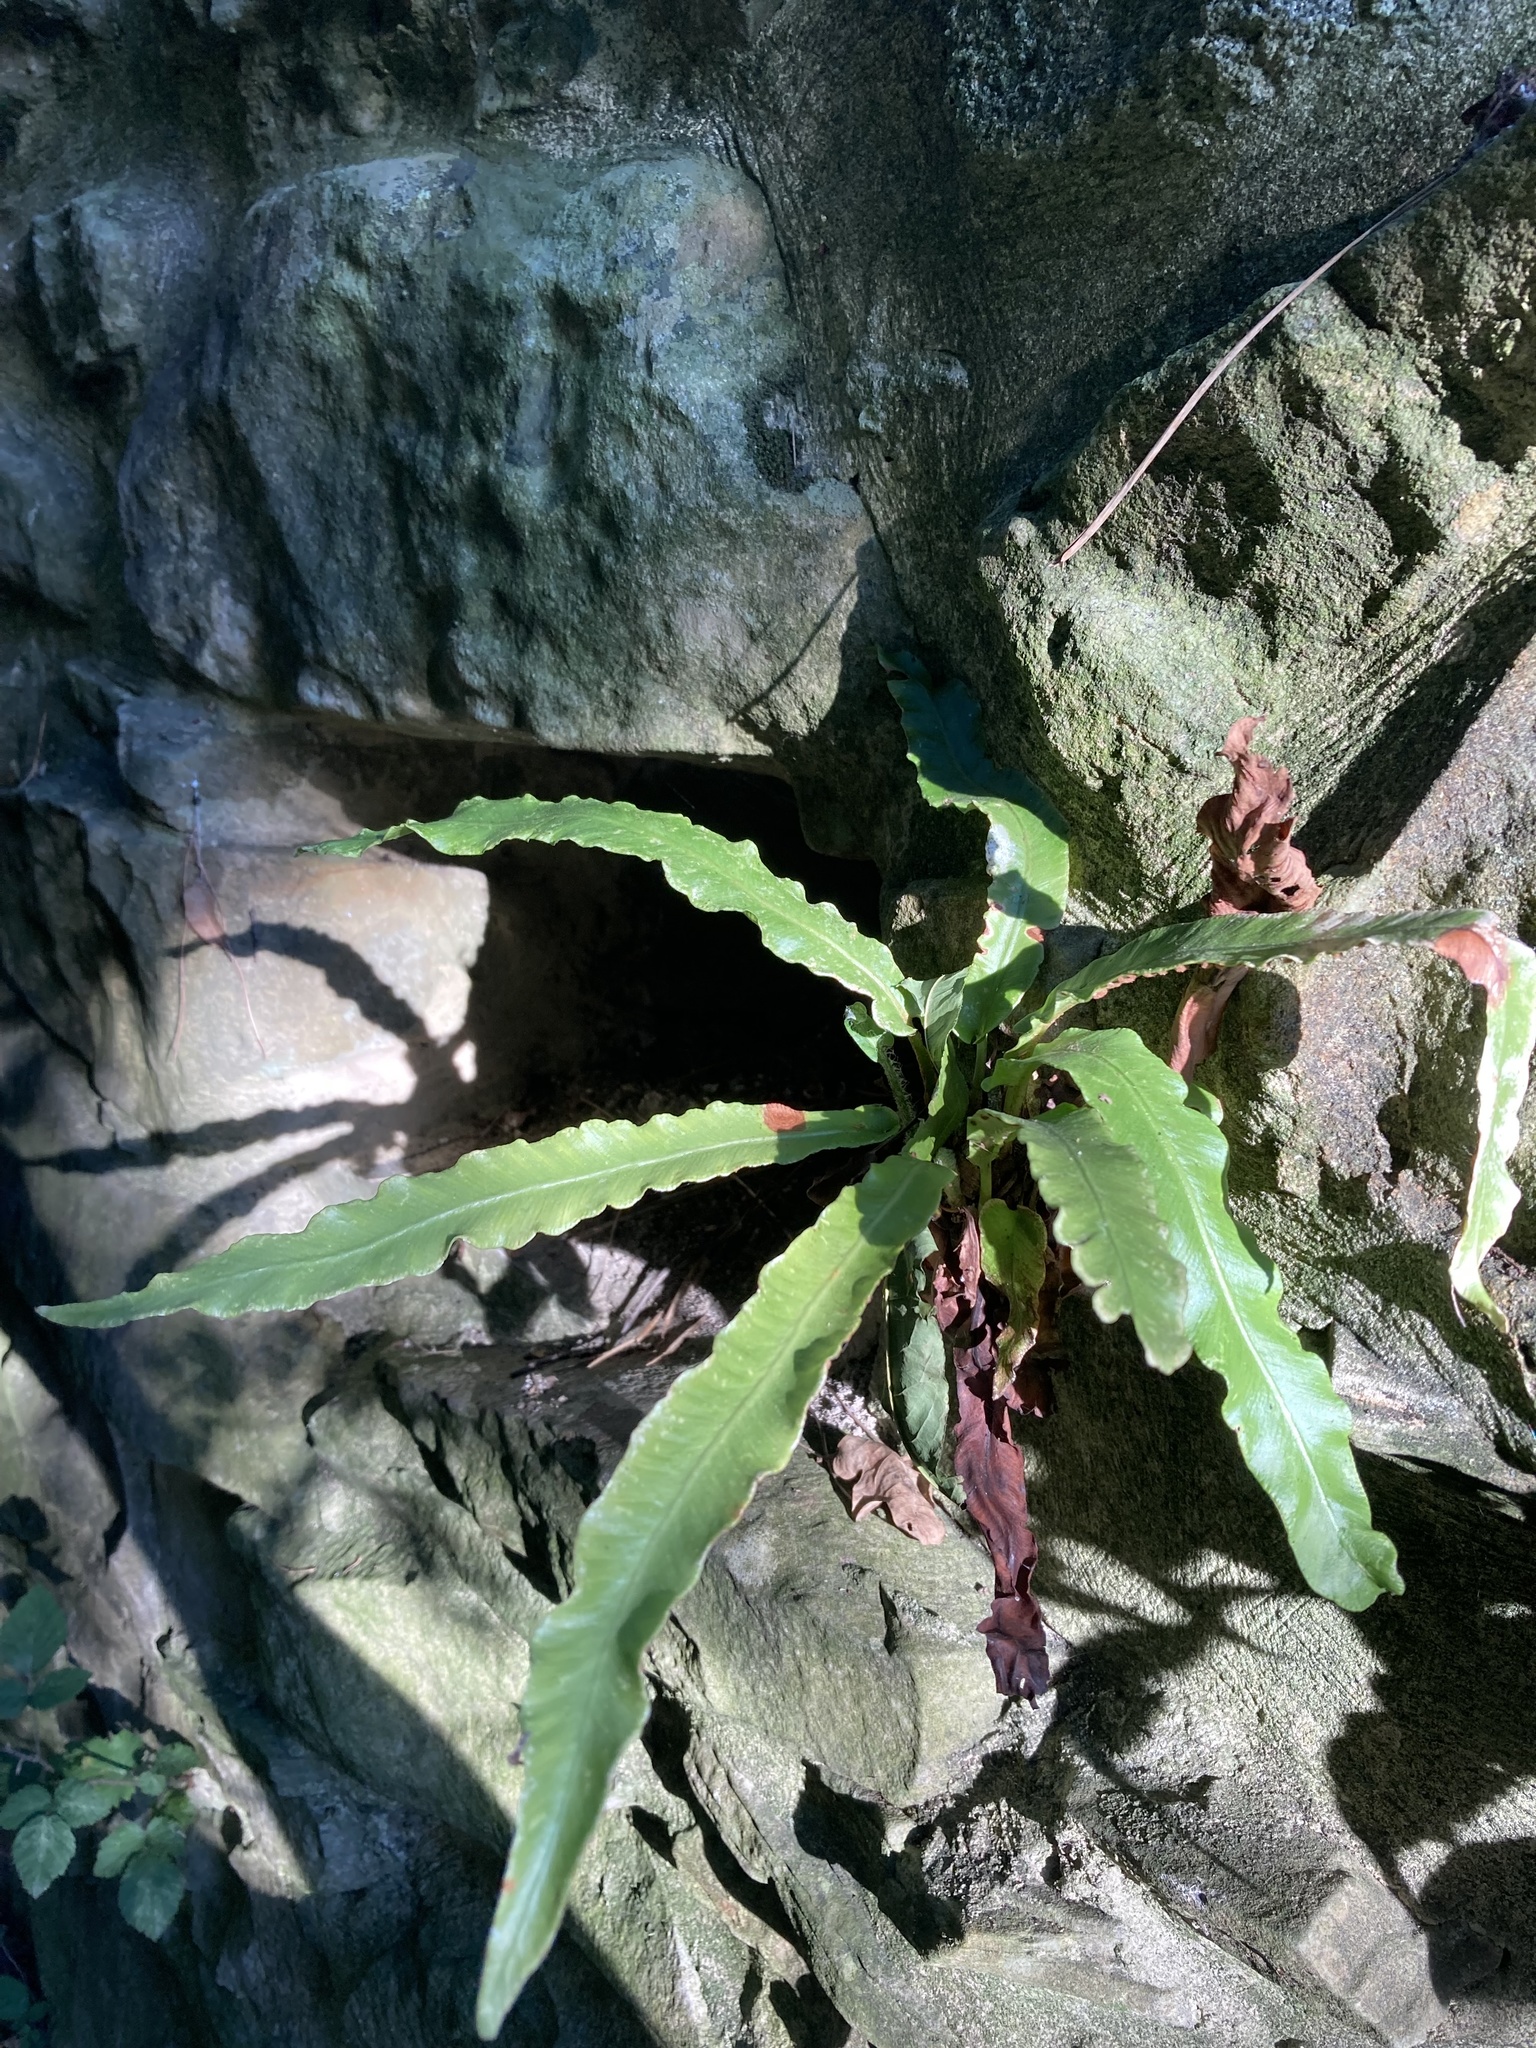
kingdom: Plantae
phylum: Tracheophyta
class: Polypodiopsida
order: Polypodiales
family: Aspleniaceae
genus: Asplenium
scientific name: Asplenium scolopendrium
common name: Hart's-tongue fern
